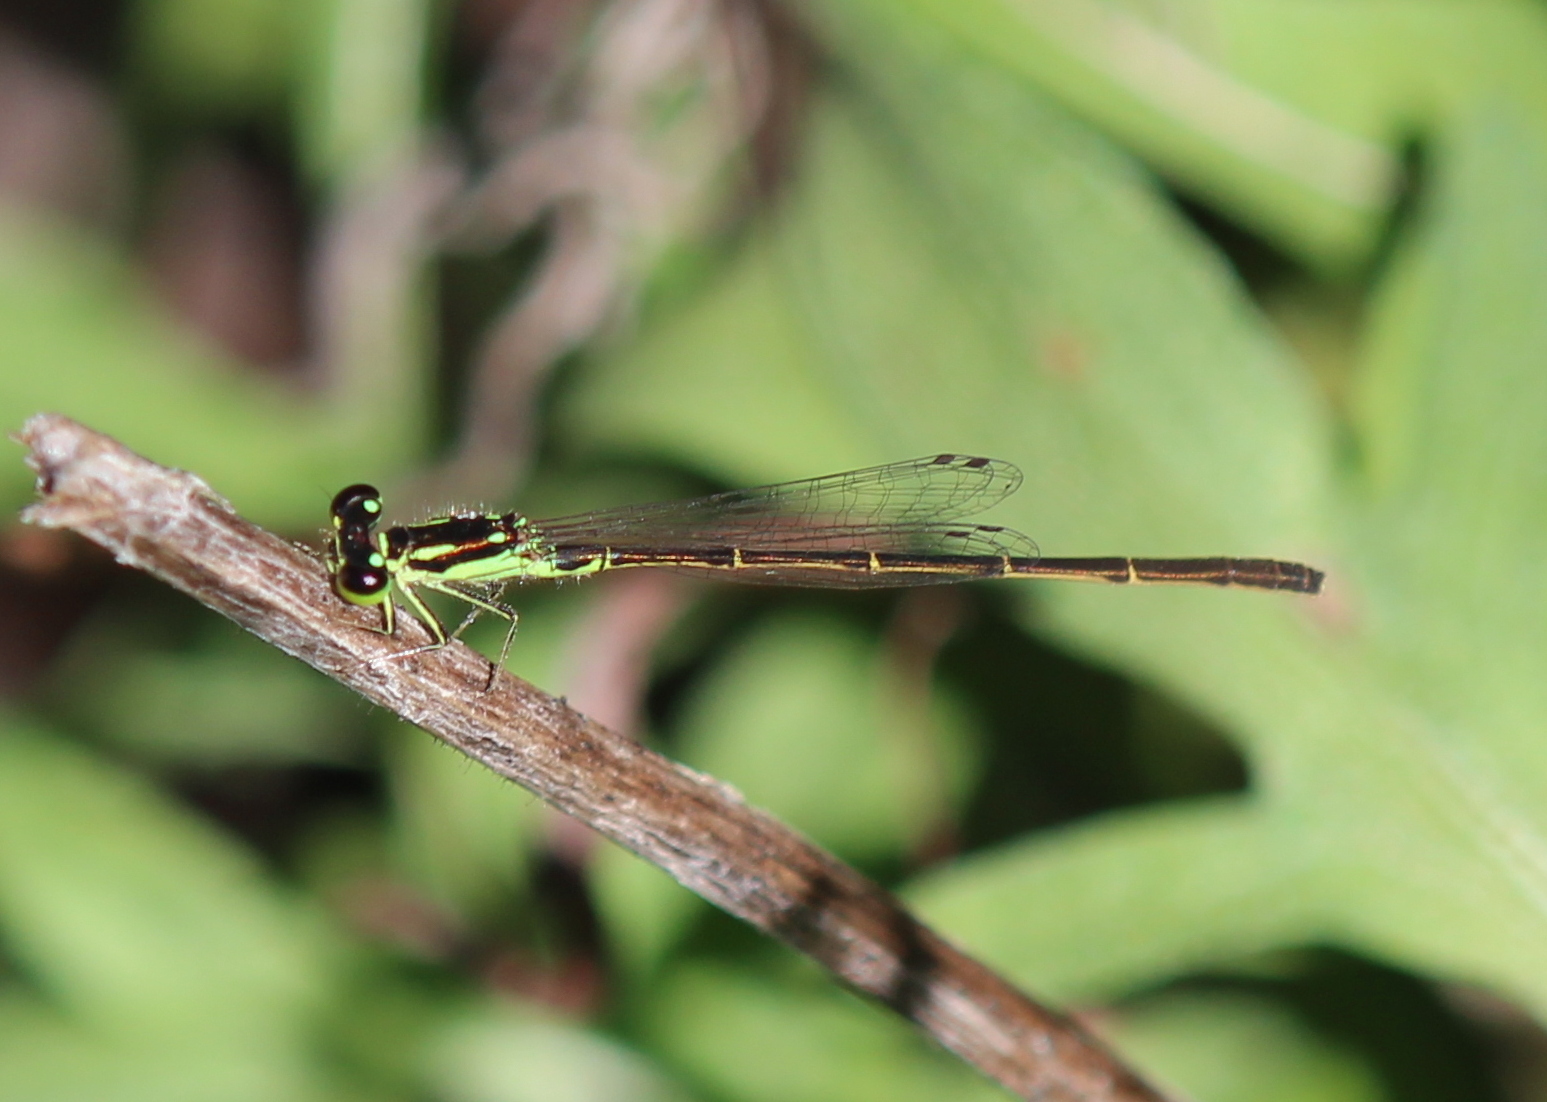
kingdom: Animalia
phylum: Arthropoda
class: Insecta
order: Odonata
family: Coenagrionidae
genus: Ischnura
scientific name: Ischnura posita
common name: Fragile forktail
